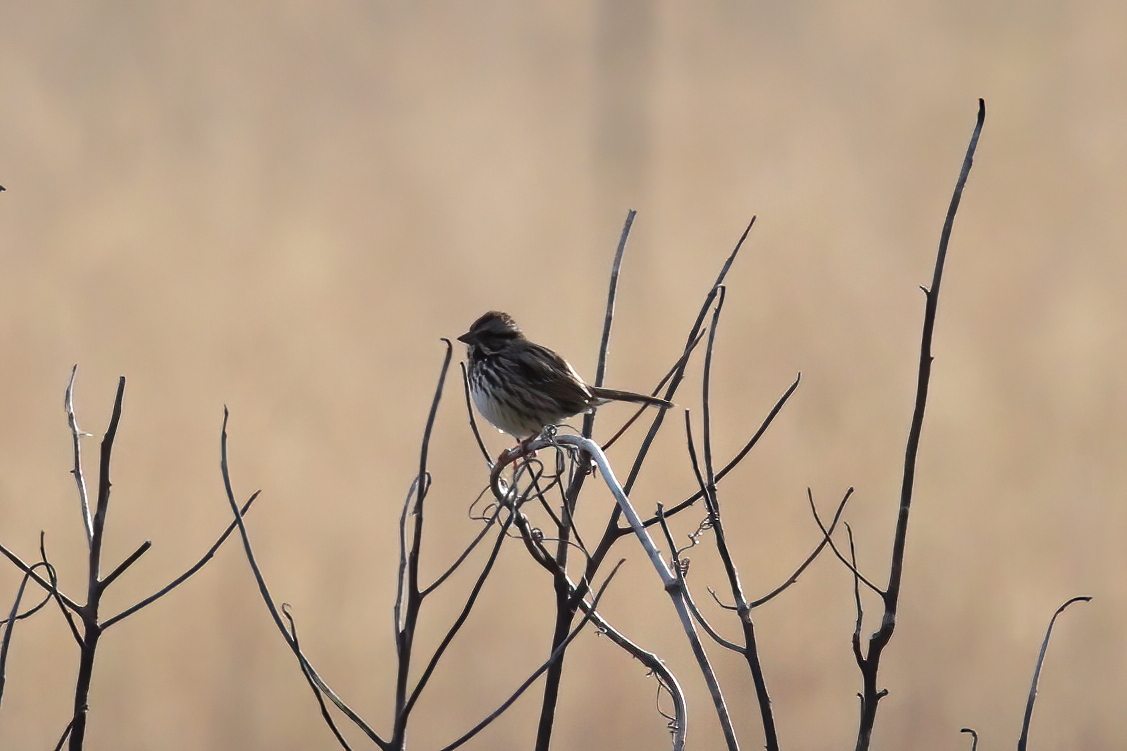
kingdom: Animalia
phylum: Chordata
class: Aves
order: Passeriformes
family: Passerellidae
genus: Melospiza
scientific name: Melospiza melodia
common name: Song sparrow
